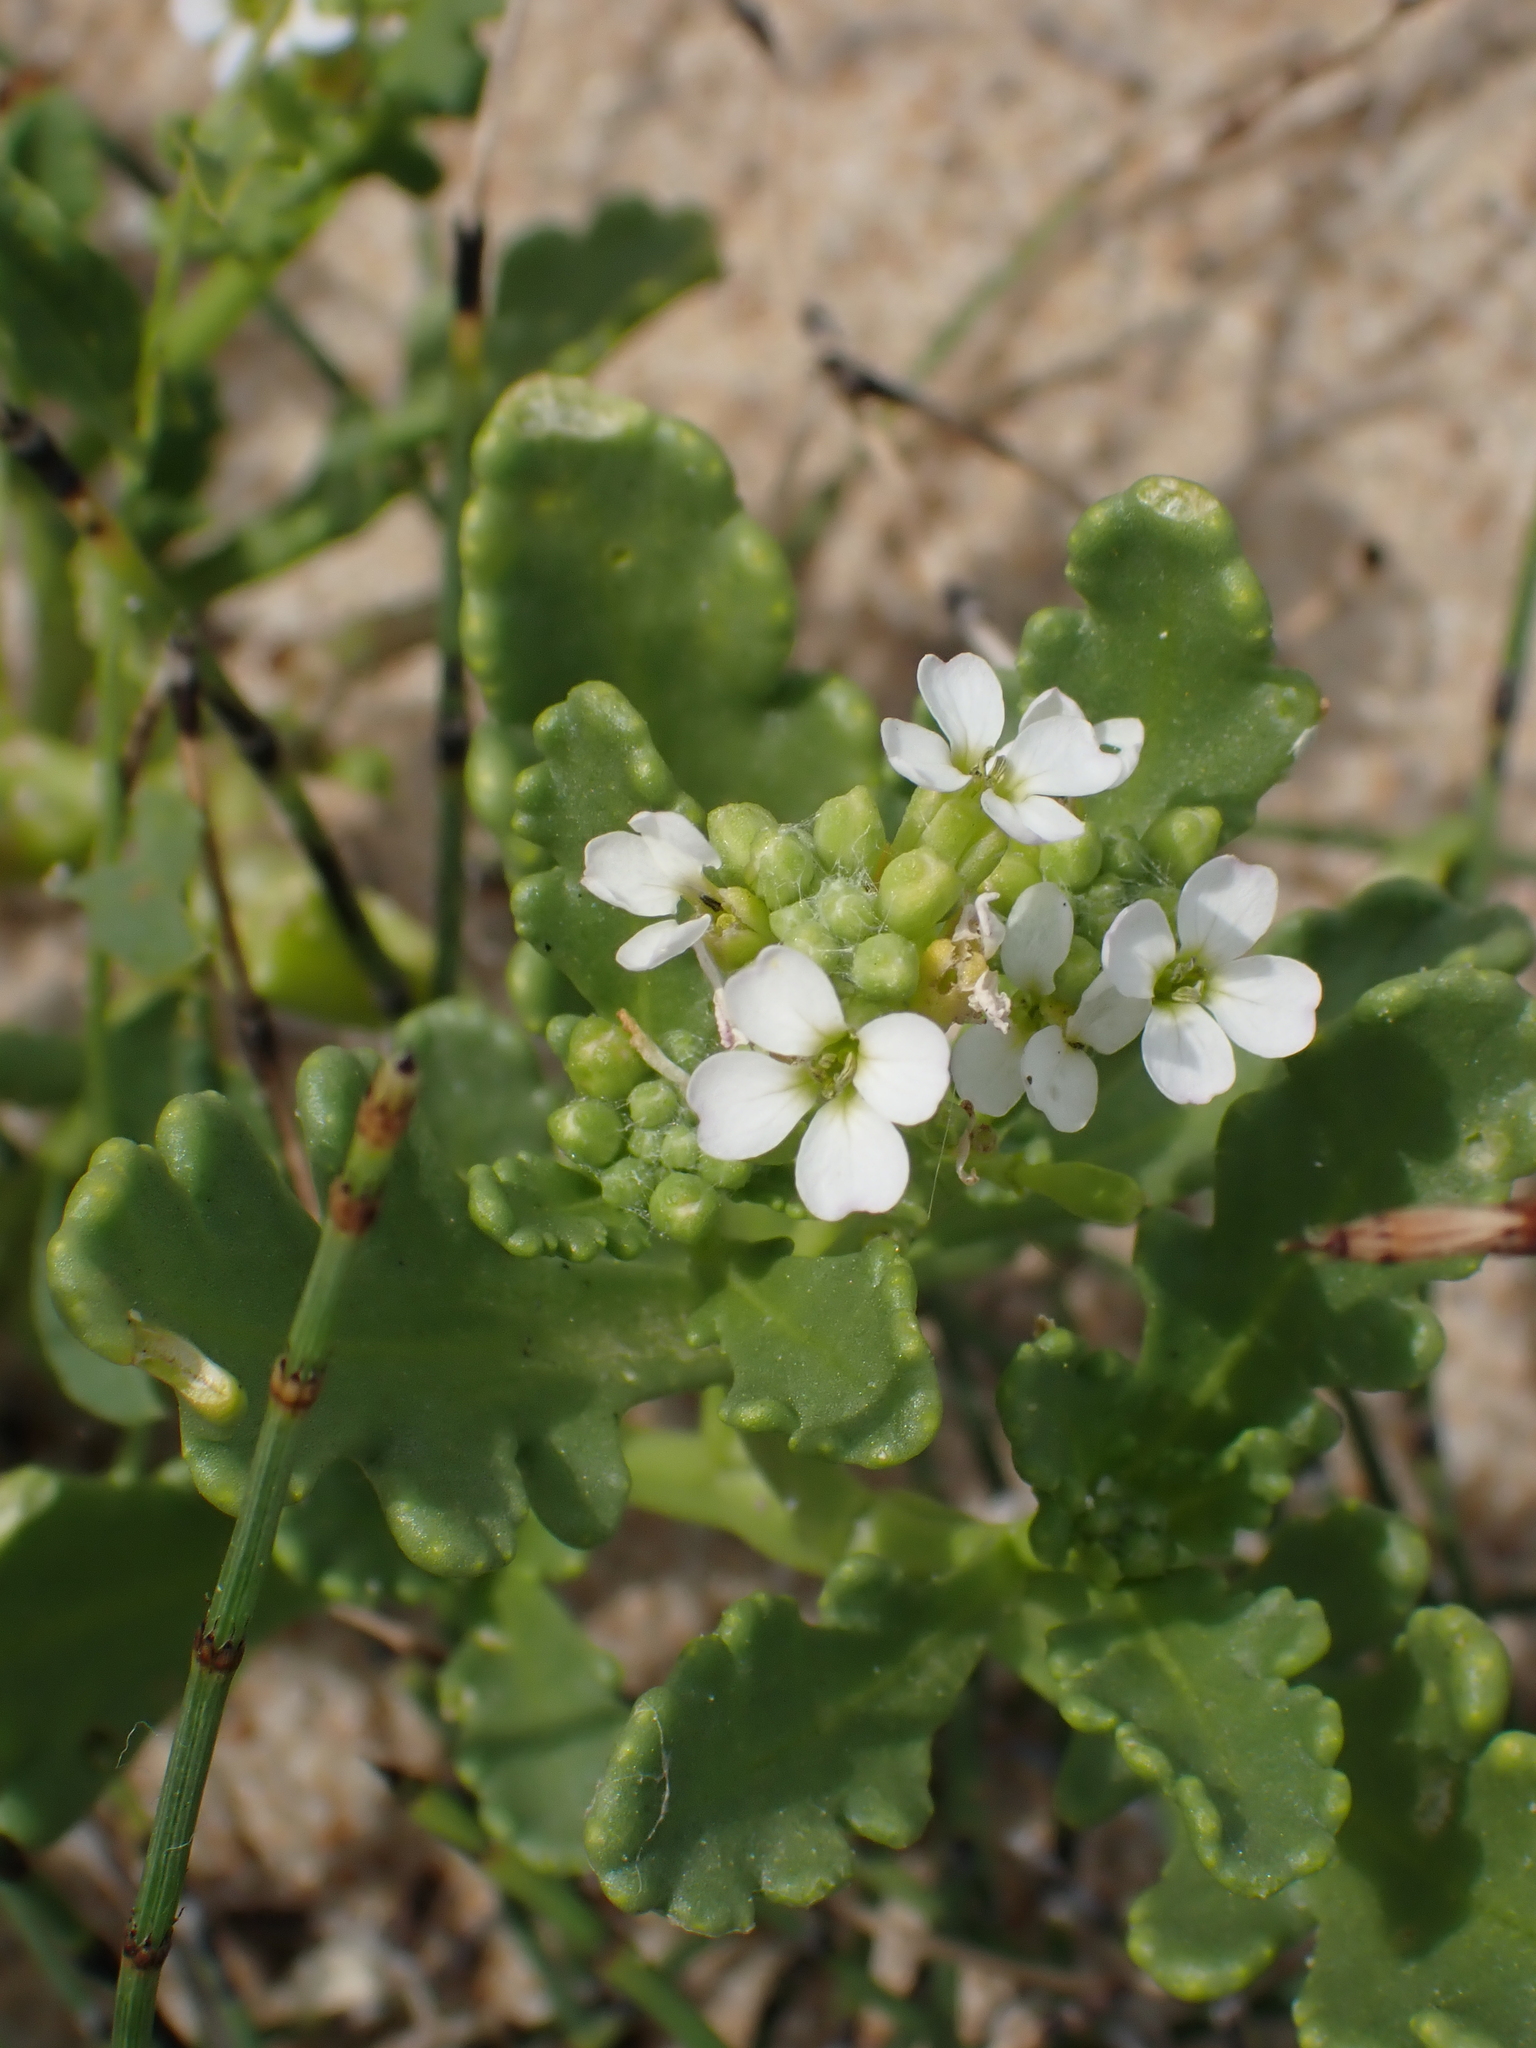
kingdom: Plantae
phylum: Tracheophyta
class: Magnoliopsida
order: Brassicales
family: Brassicaceae
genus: Cakile
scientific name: Cakile maritima
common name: Sea rocket
